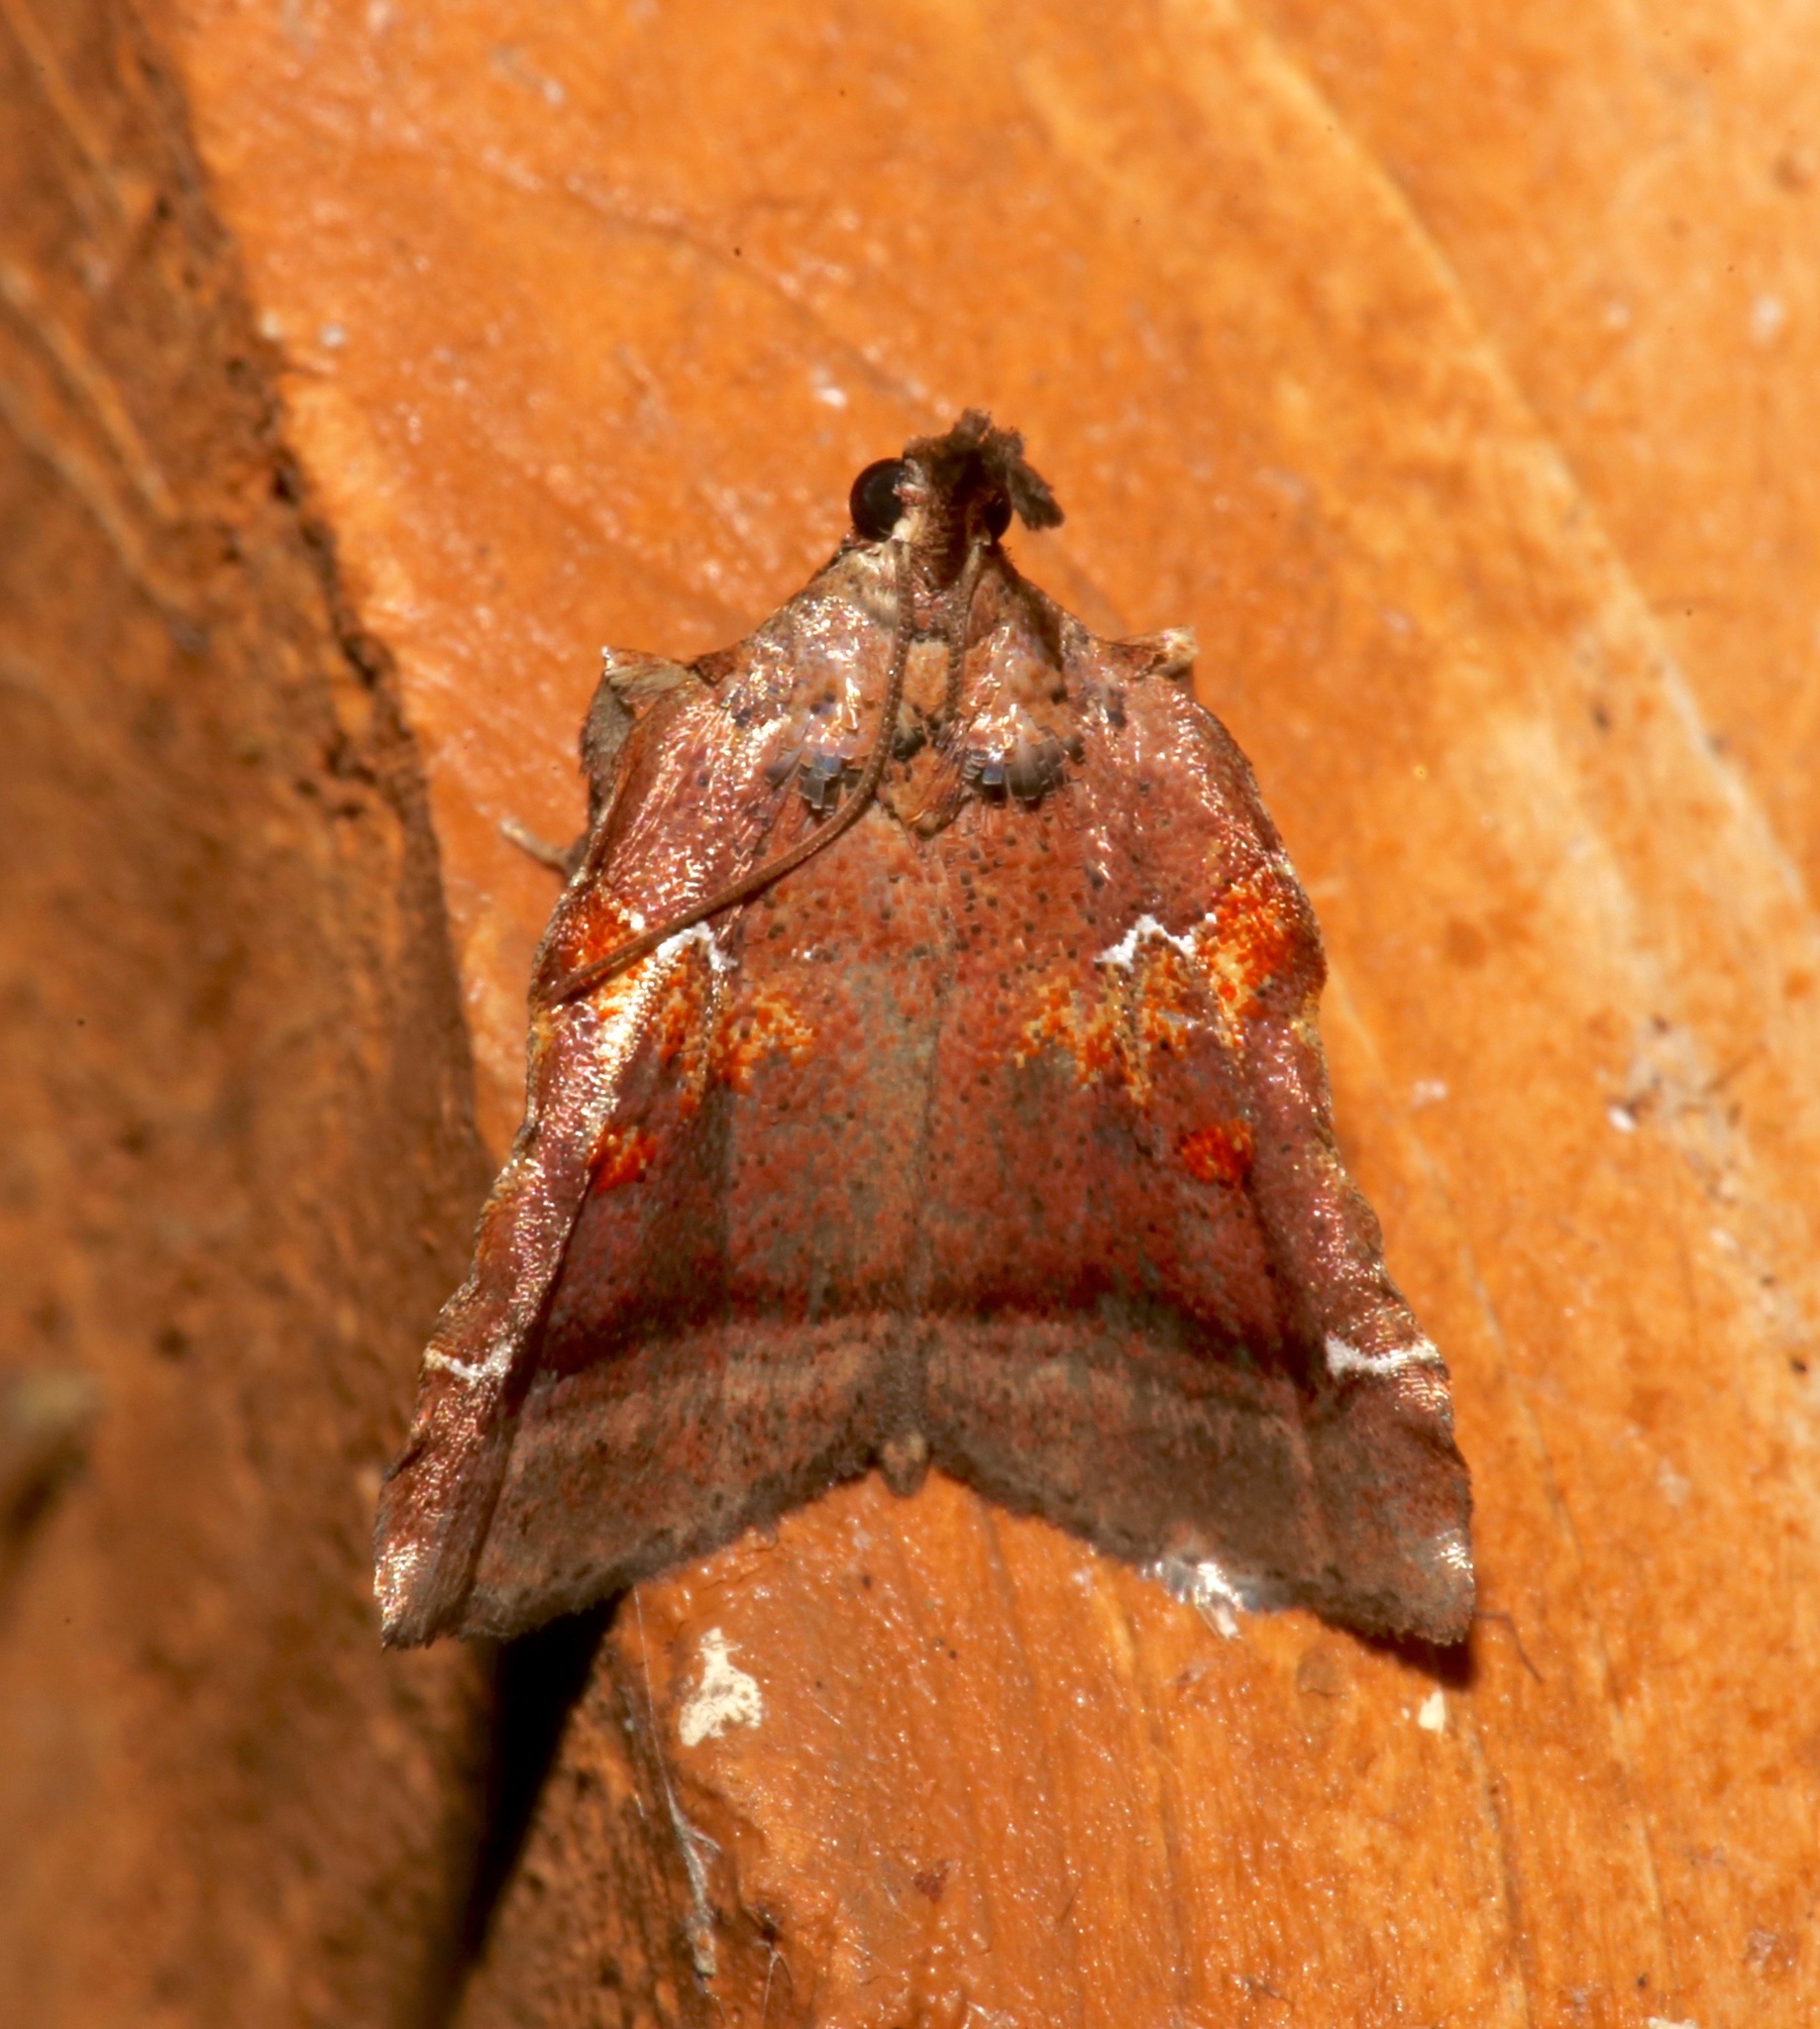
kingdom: Animalia
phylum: Arthropoda
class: Insecta
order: Lepidoptera
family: Pyralidae
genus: Clydonopteron
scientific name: Clydonopteron sacculana
